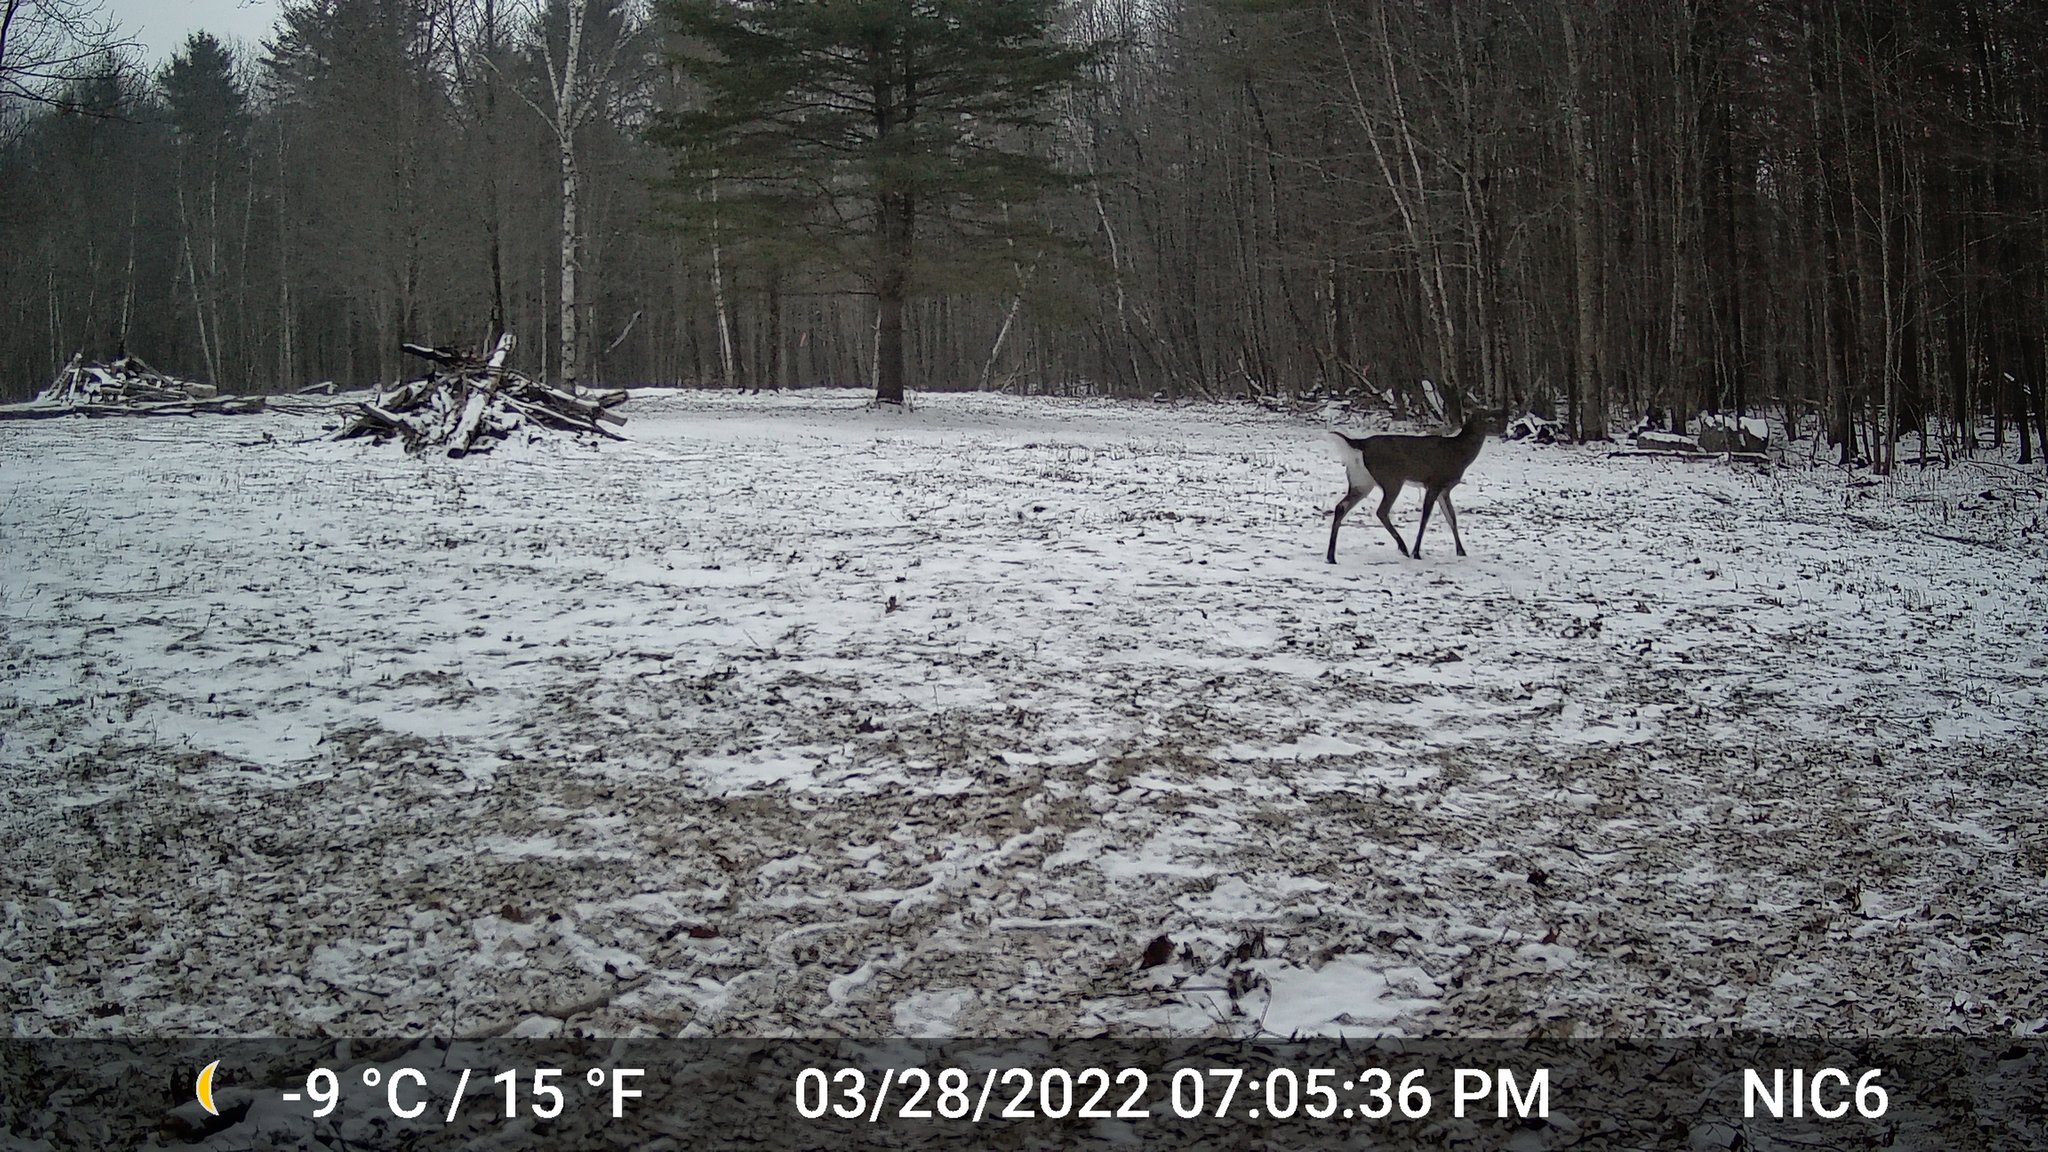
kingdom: Animalia
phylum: Chordata
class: Mammalia
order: Artiodactyla
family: Cervidae
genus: Odocoileus
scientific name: Odocoileus virginianus
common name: White-tailed deer
